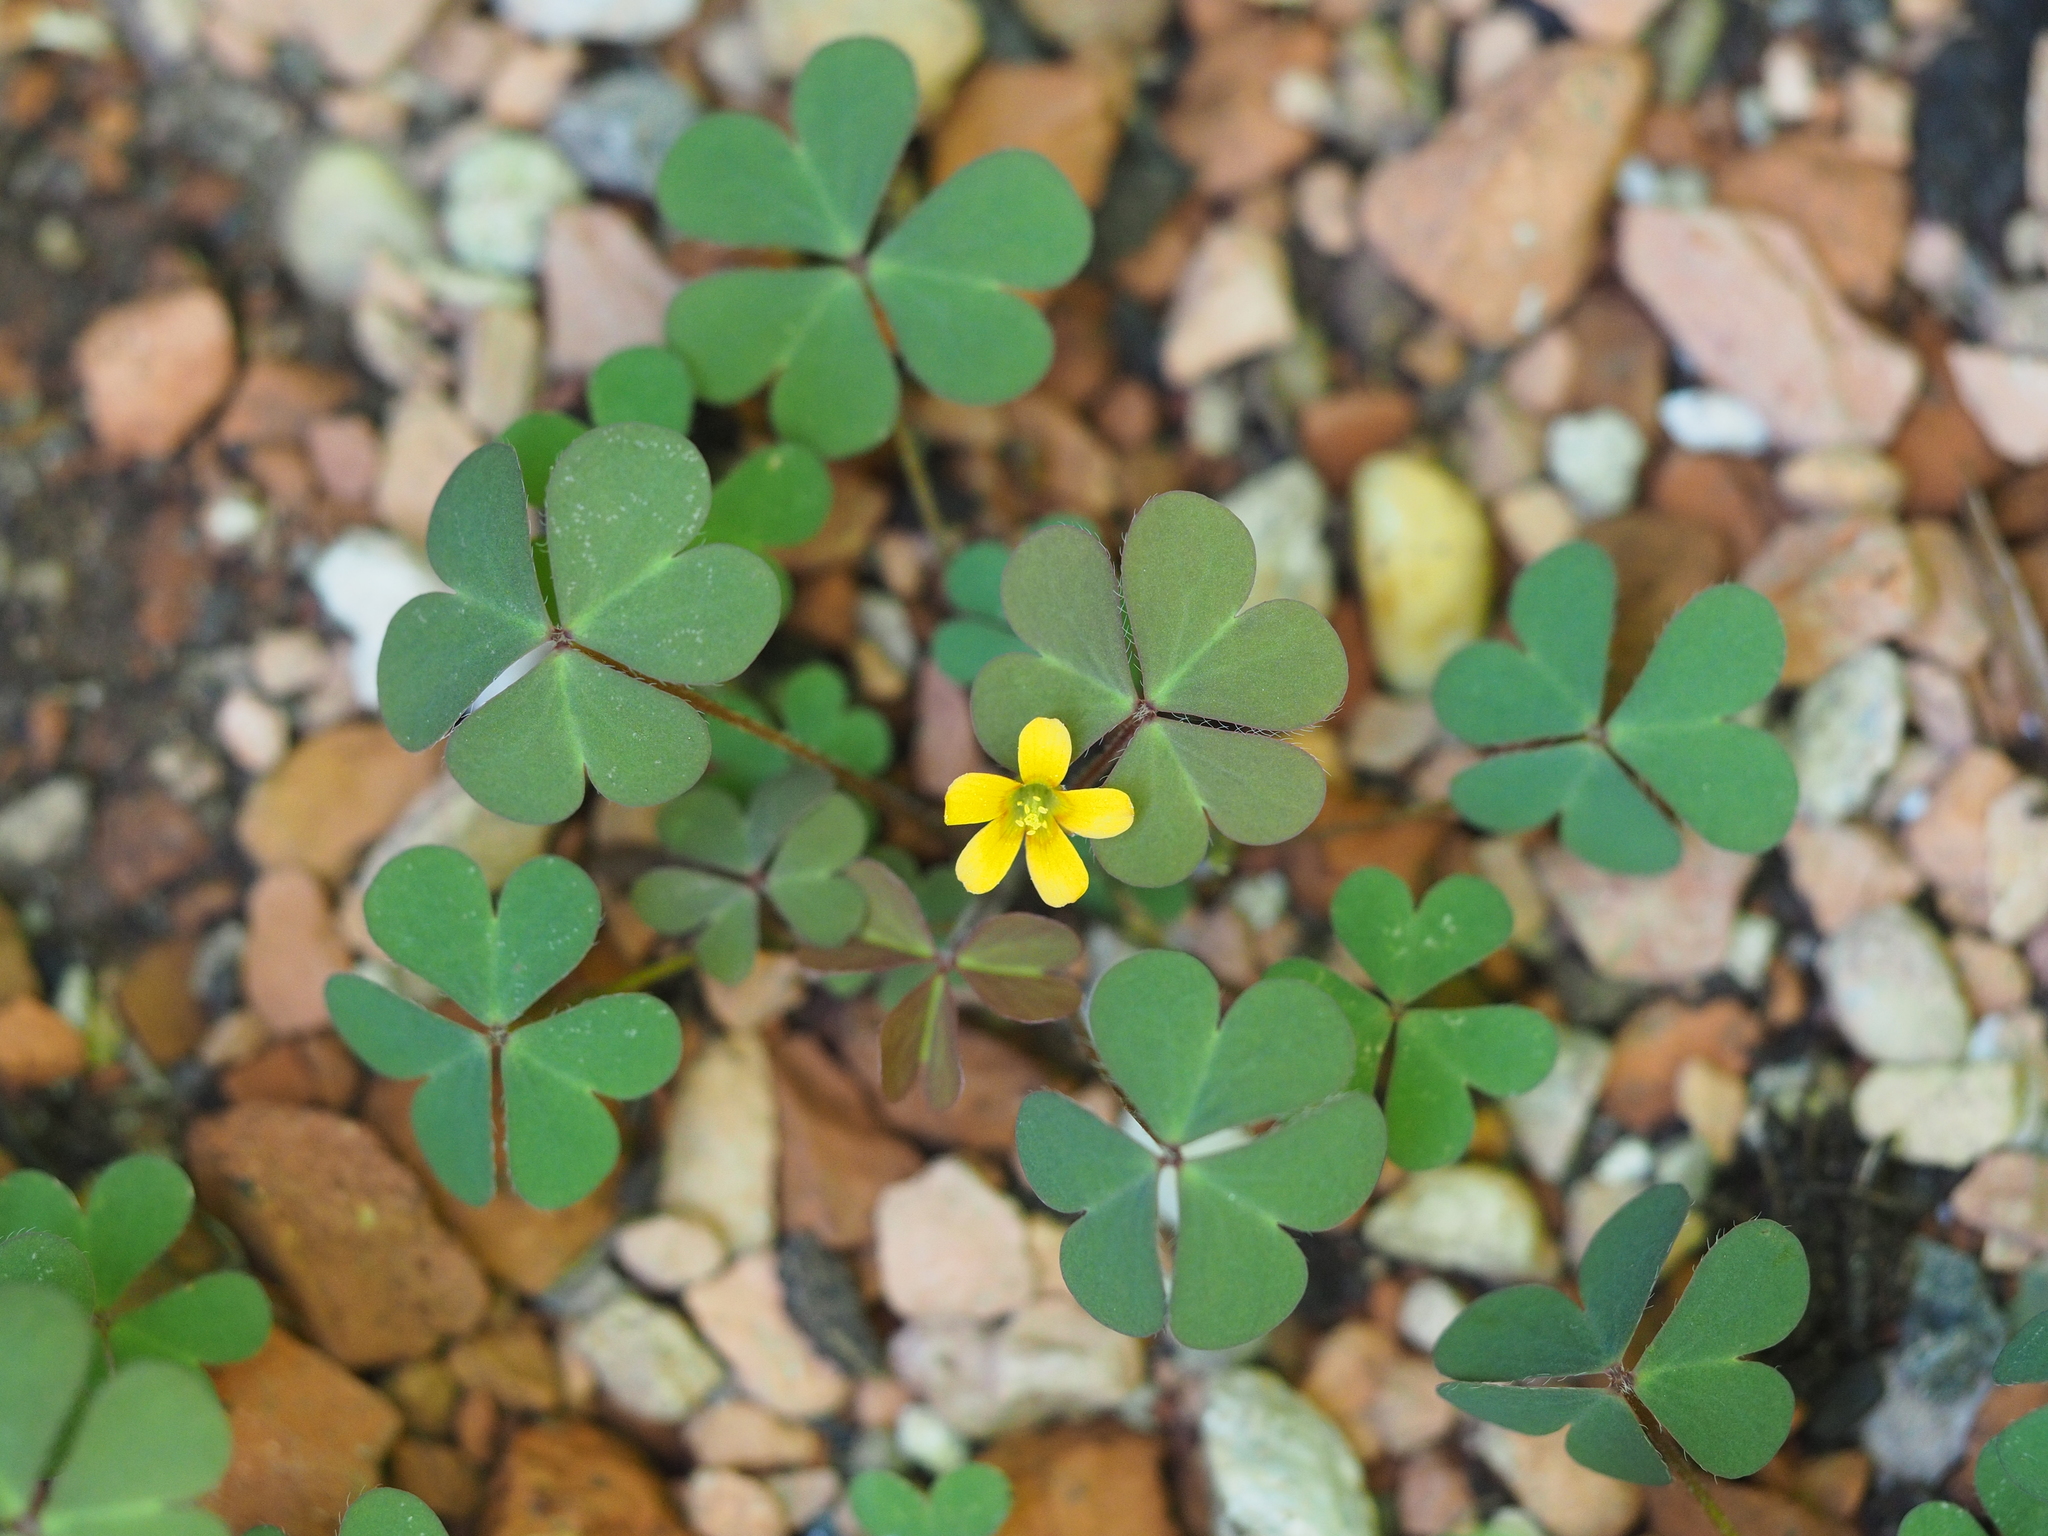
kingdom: Plantae
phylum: Tracheophyta
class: Magnoliopsida
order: Oxalidales
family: Oxalidaceae
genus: Oxalis
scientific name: Oxalis corniculata
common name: Procumbent yellow-sorrel
